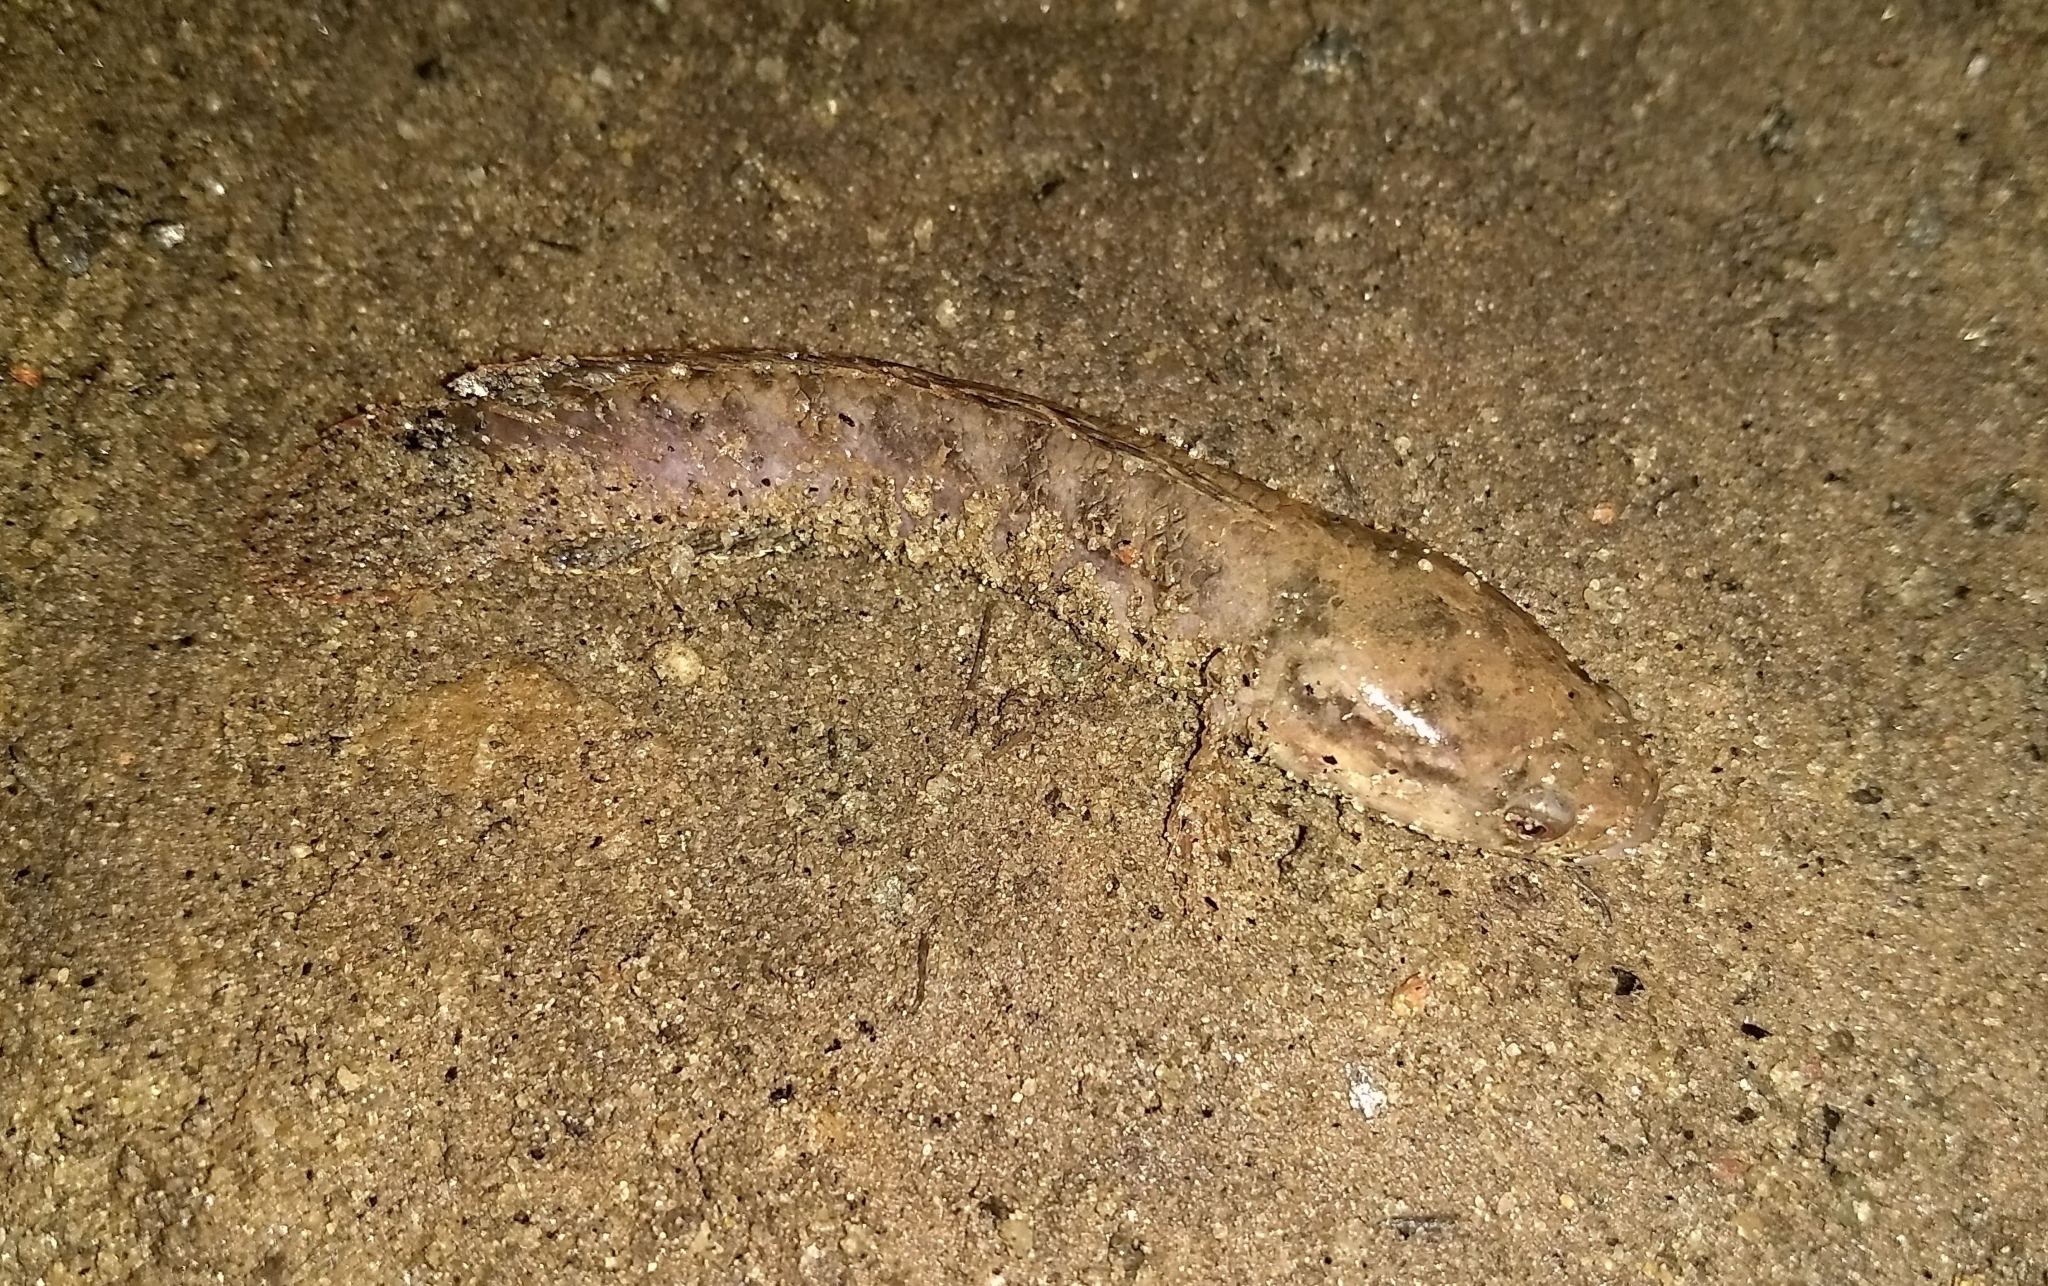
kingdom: Animalia
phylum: Chordata
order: Perciformes
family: Channidae
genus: Channa
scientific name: Channa punctata
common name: Spotted snakehead
